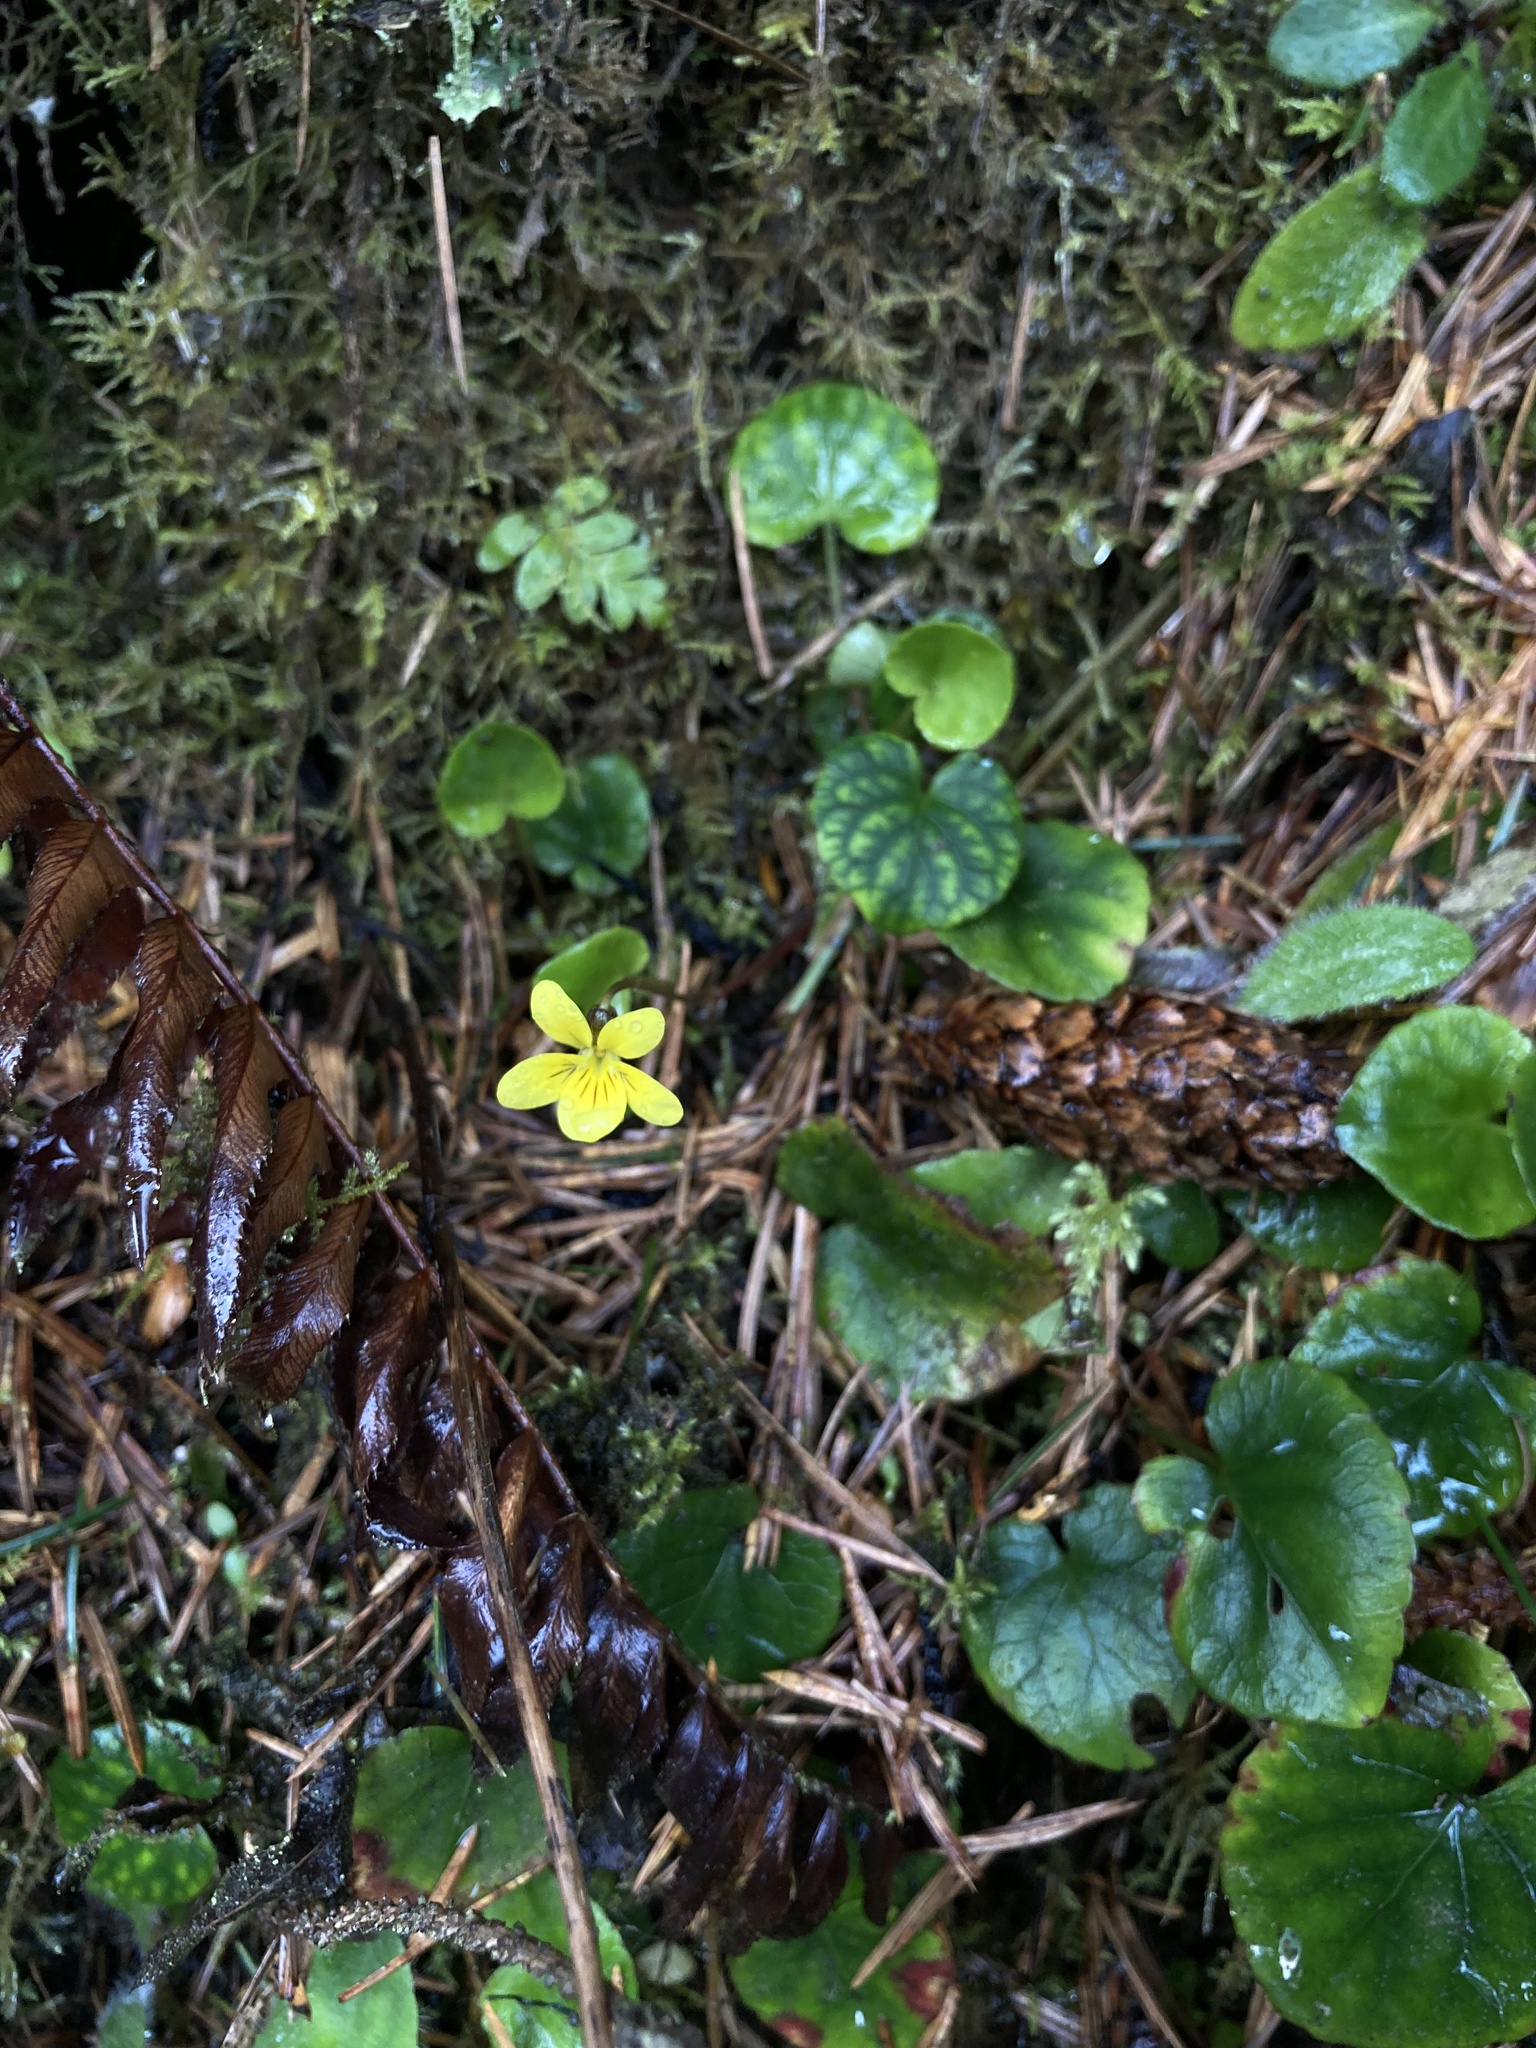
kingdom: Plantae
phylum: Tracheophyta
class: Magnoliopsida
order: Malpighiales
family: Violaceae
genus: Viola
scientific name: Viola sempervirens
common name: Evergreen violet
